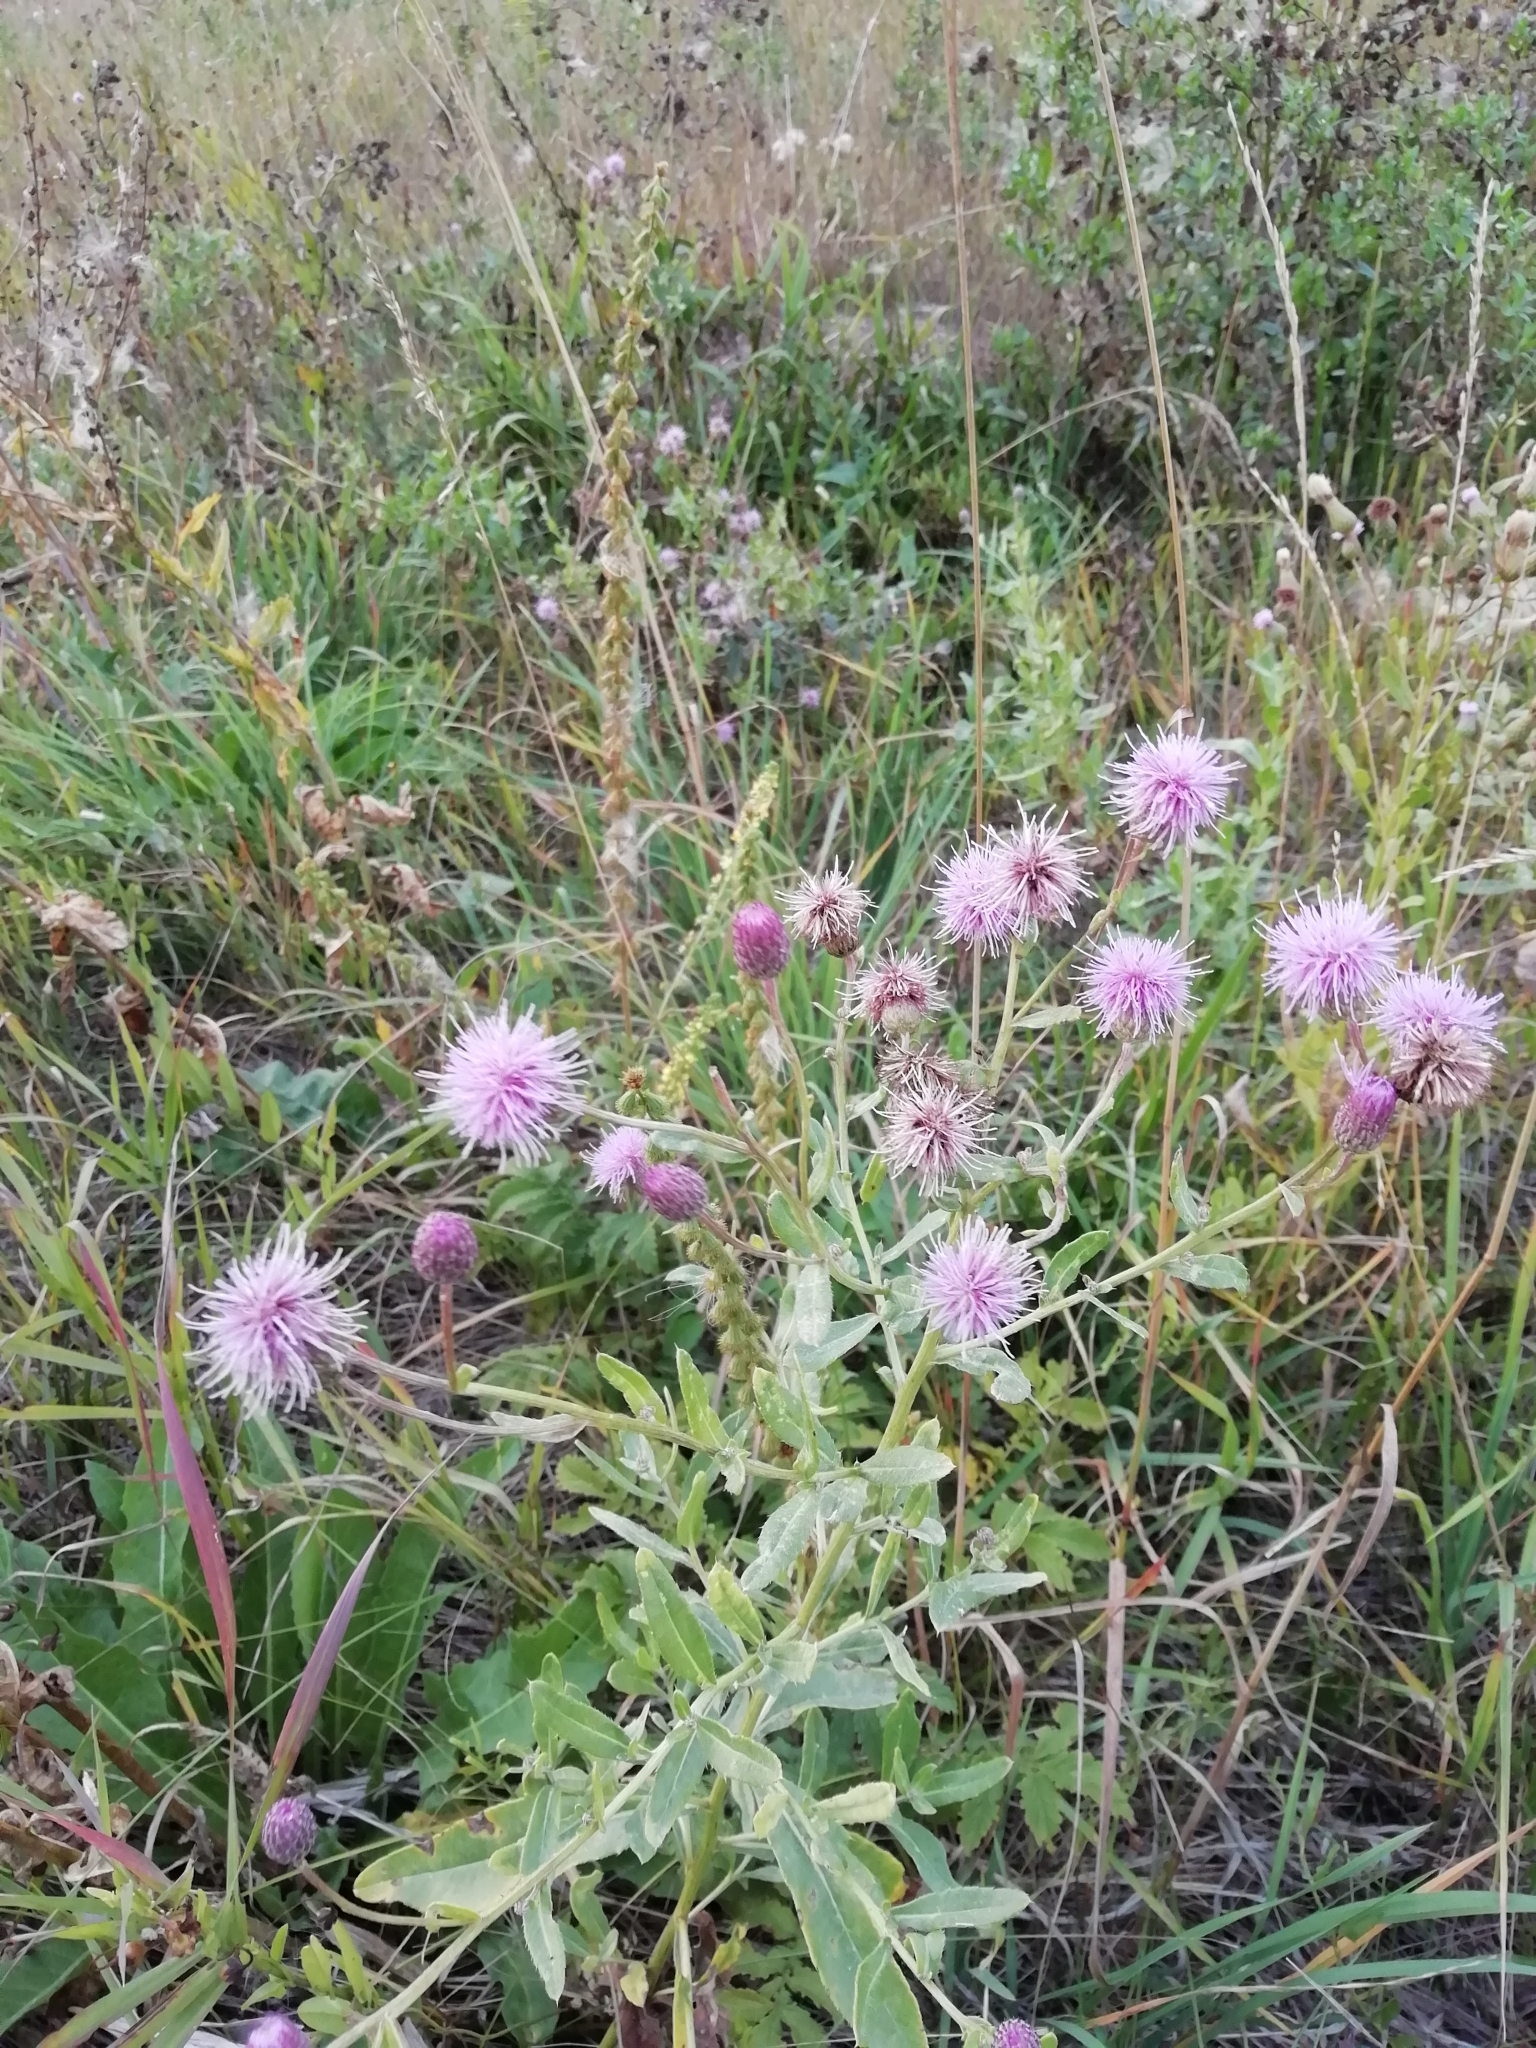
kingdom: Plantae
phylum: Tracheophyta
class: Magnoliopsida
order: Asterales
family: Asteraceae
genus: Cirsium
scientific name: Cirsium arvense
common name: Creeping thistle
